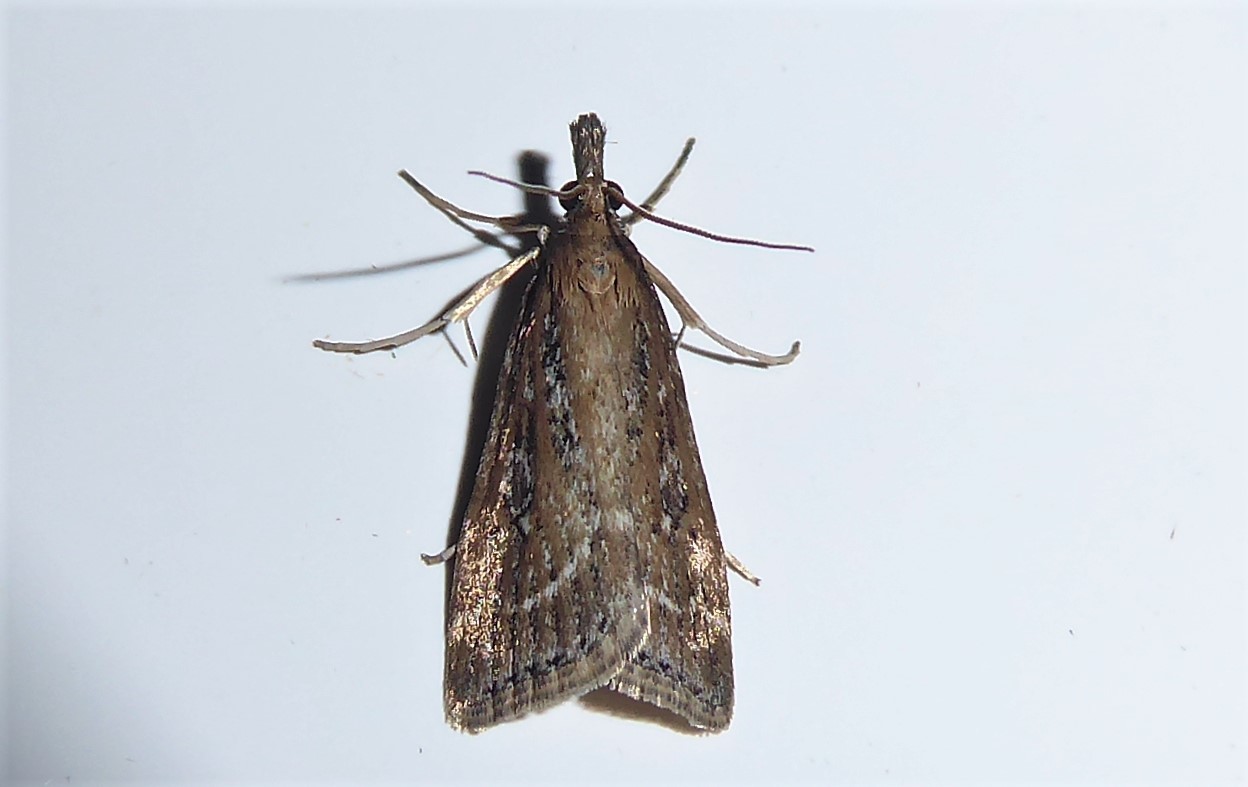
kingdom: Animalia
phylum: Arthropoda
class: Insecta
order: Lepidoptera
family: Crambidae
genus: Eudonia
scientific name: Eudonia octophora
